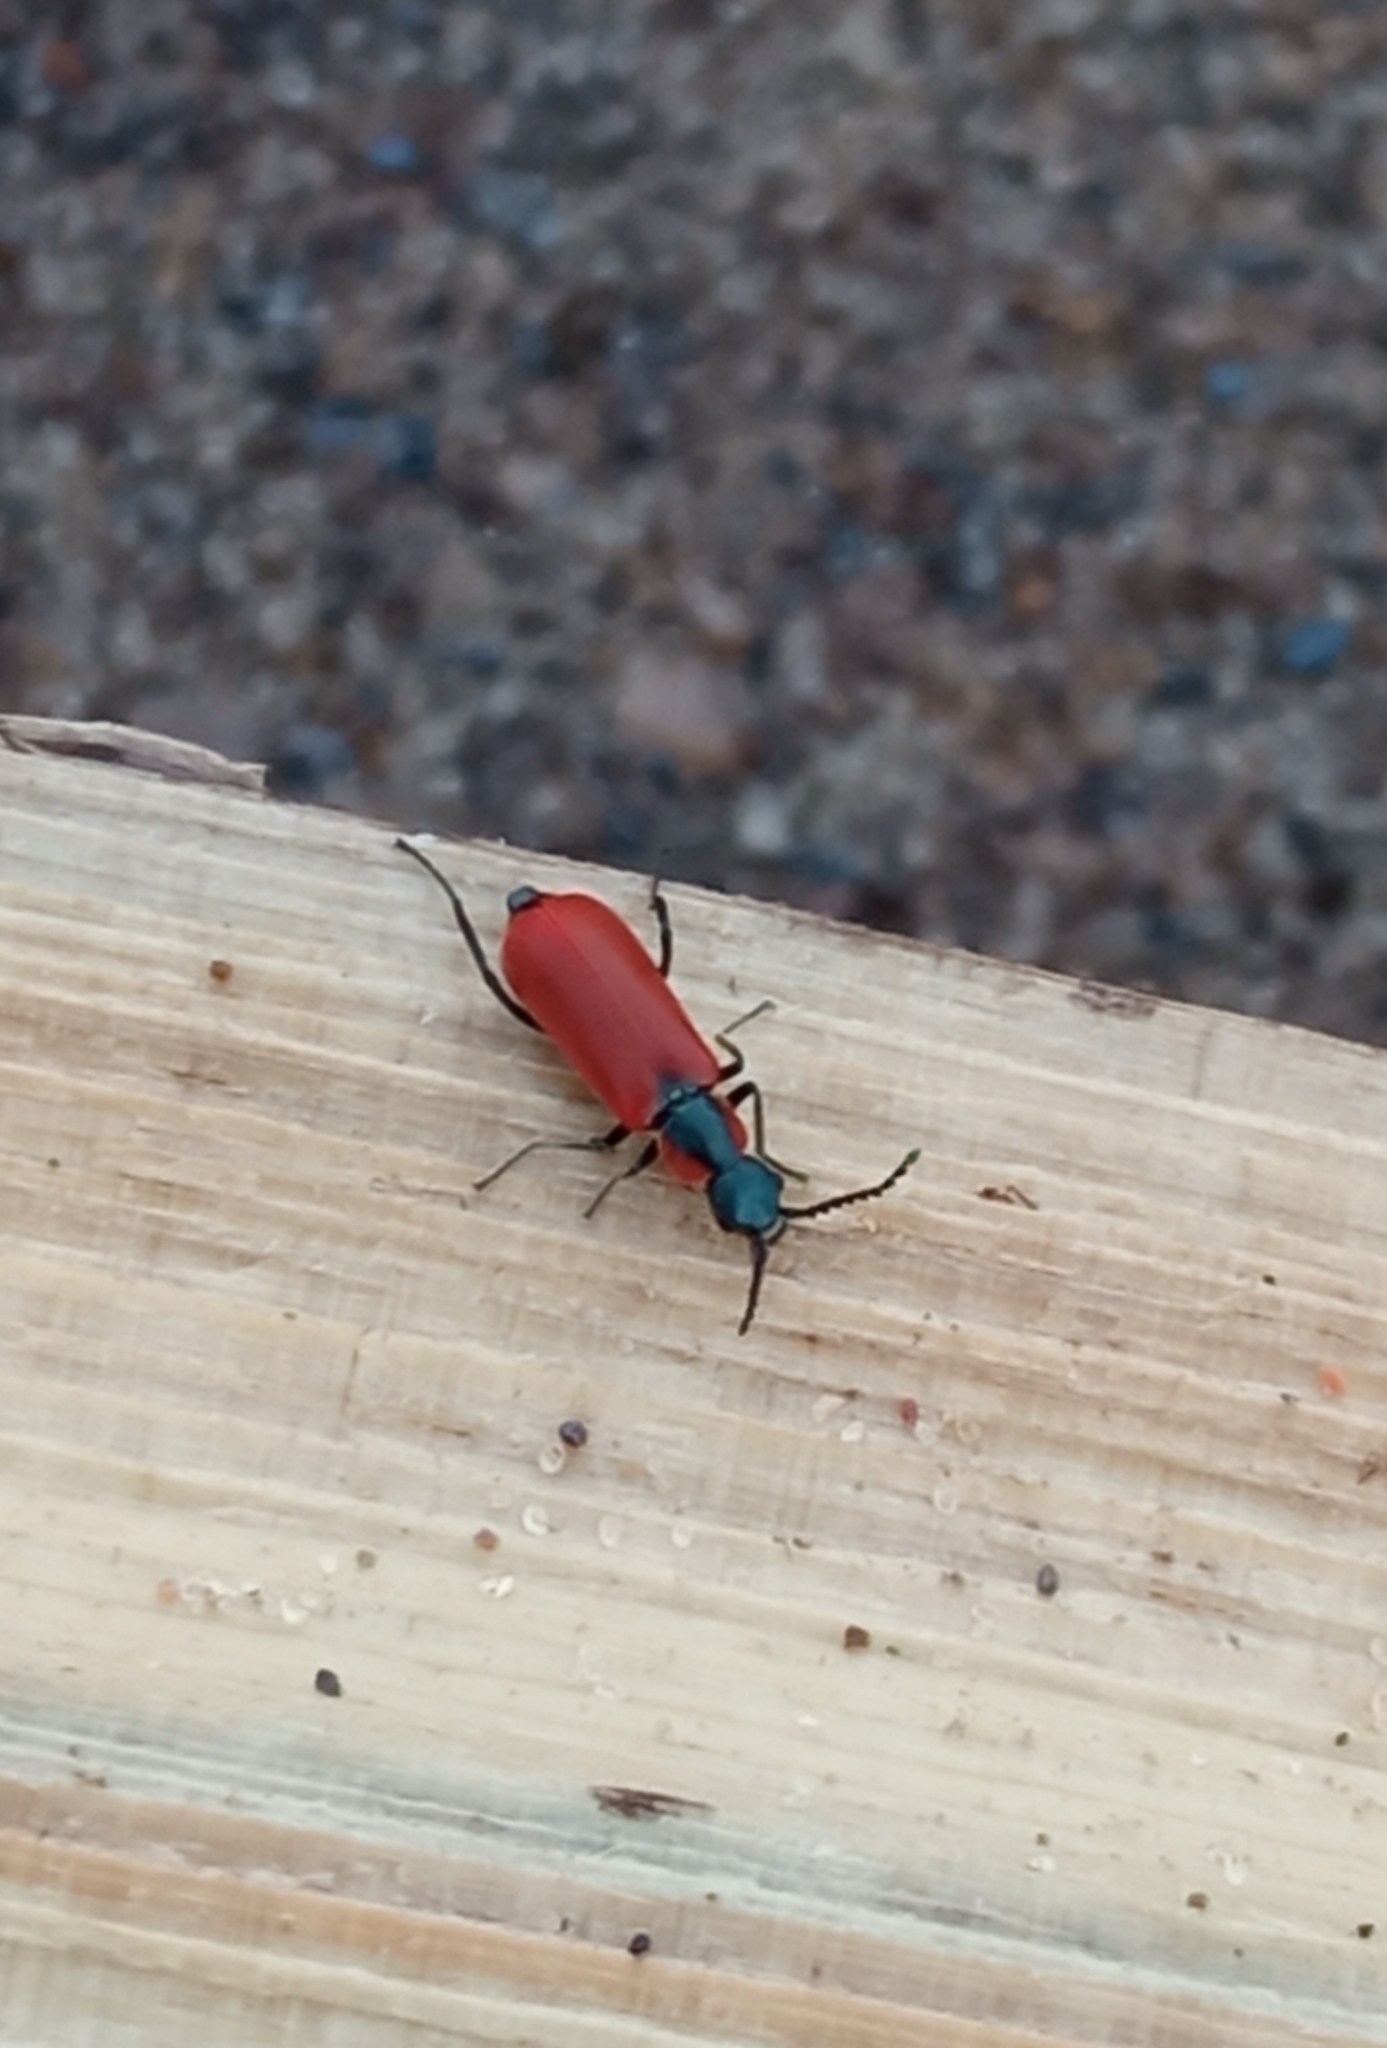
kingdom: Animalia
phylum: Arthropoda
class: Insecta
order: Coleoptera
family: Melyridae
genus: Anthocomus
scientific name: Anthocomus rufus
